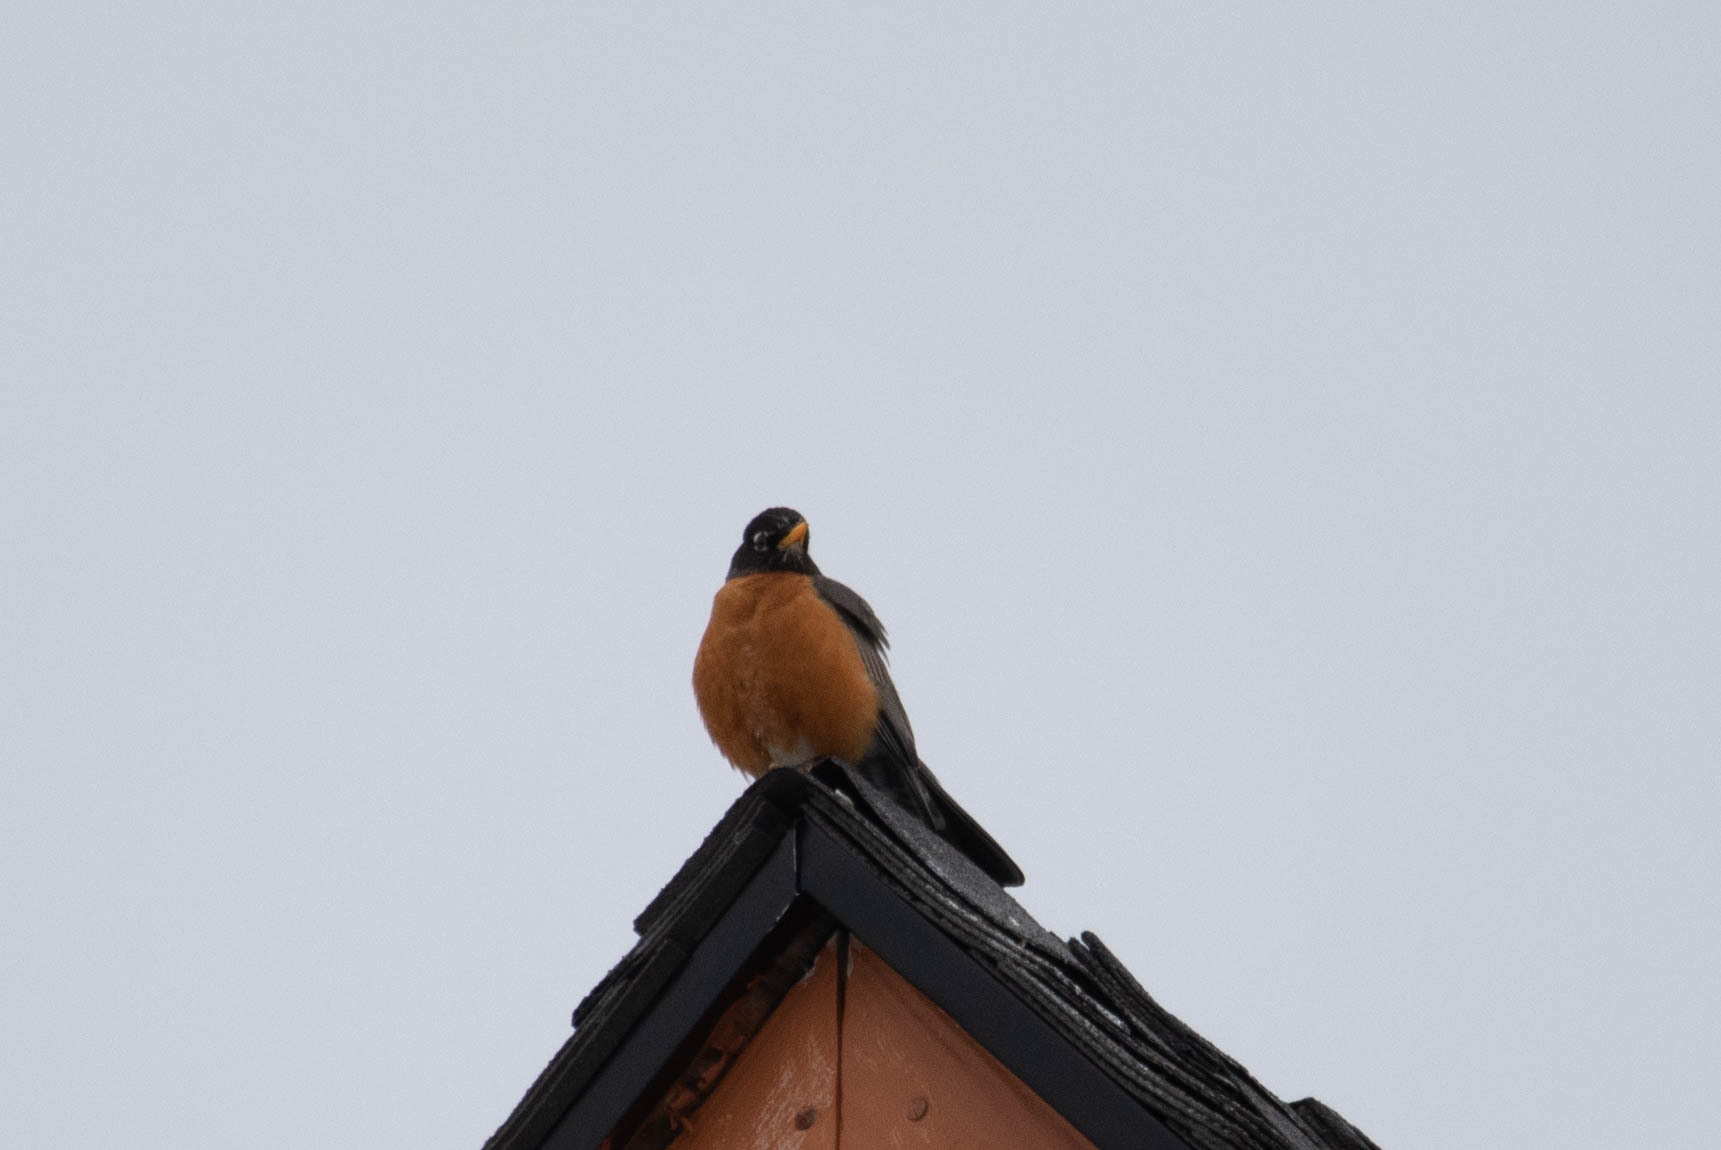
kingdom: Animalia
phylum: Chordata
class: Aves
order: Passeriformes
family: Turdidae
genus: Turdus
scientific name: Turdus migratorius
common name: American robin
